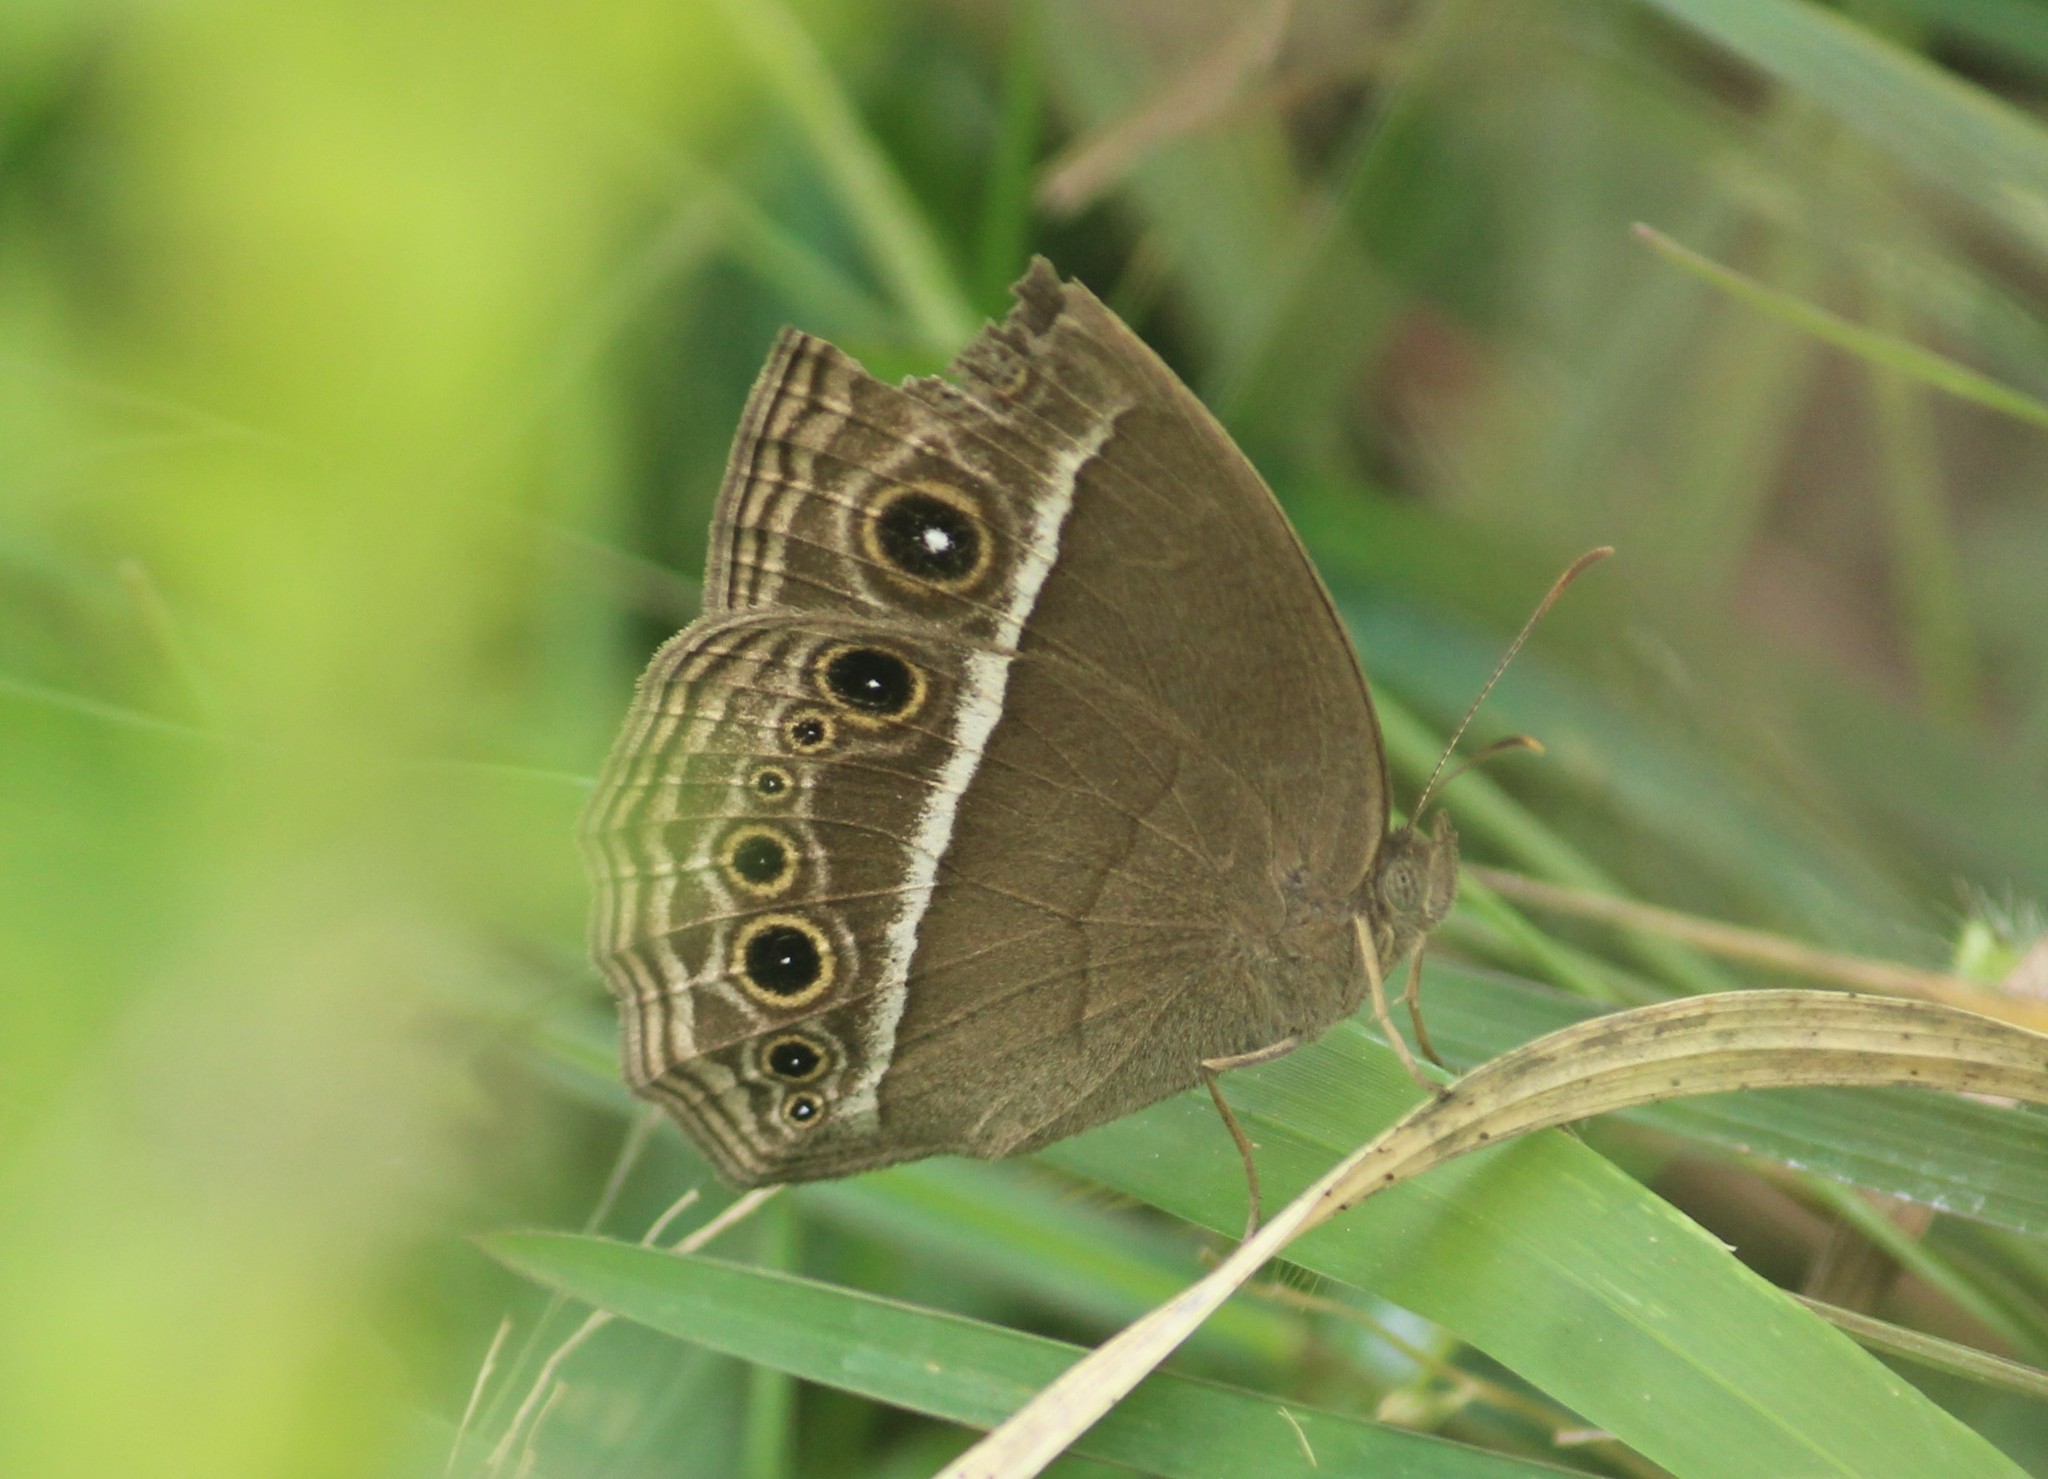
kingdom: Animalia
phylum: Arthropoda
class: Insecta
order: Lepidoptera
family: Nymphalidae
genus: Mycalesis
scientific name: Mycalesis mineus
